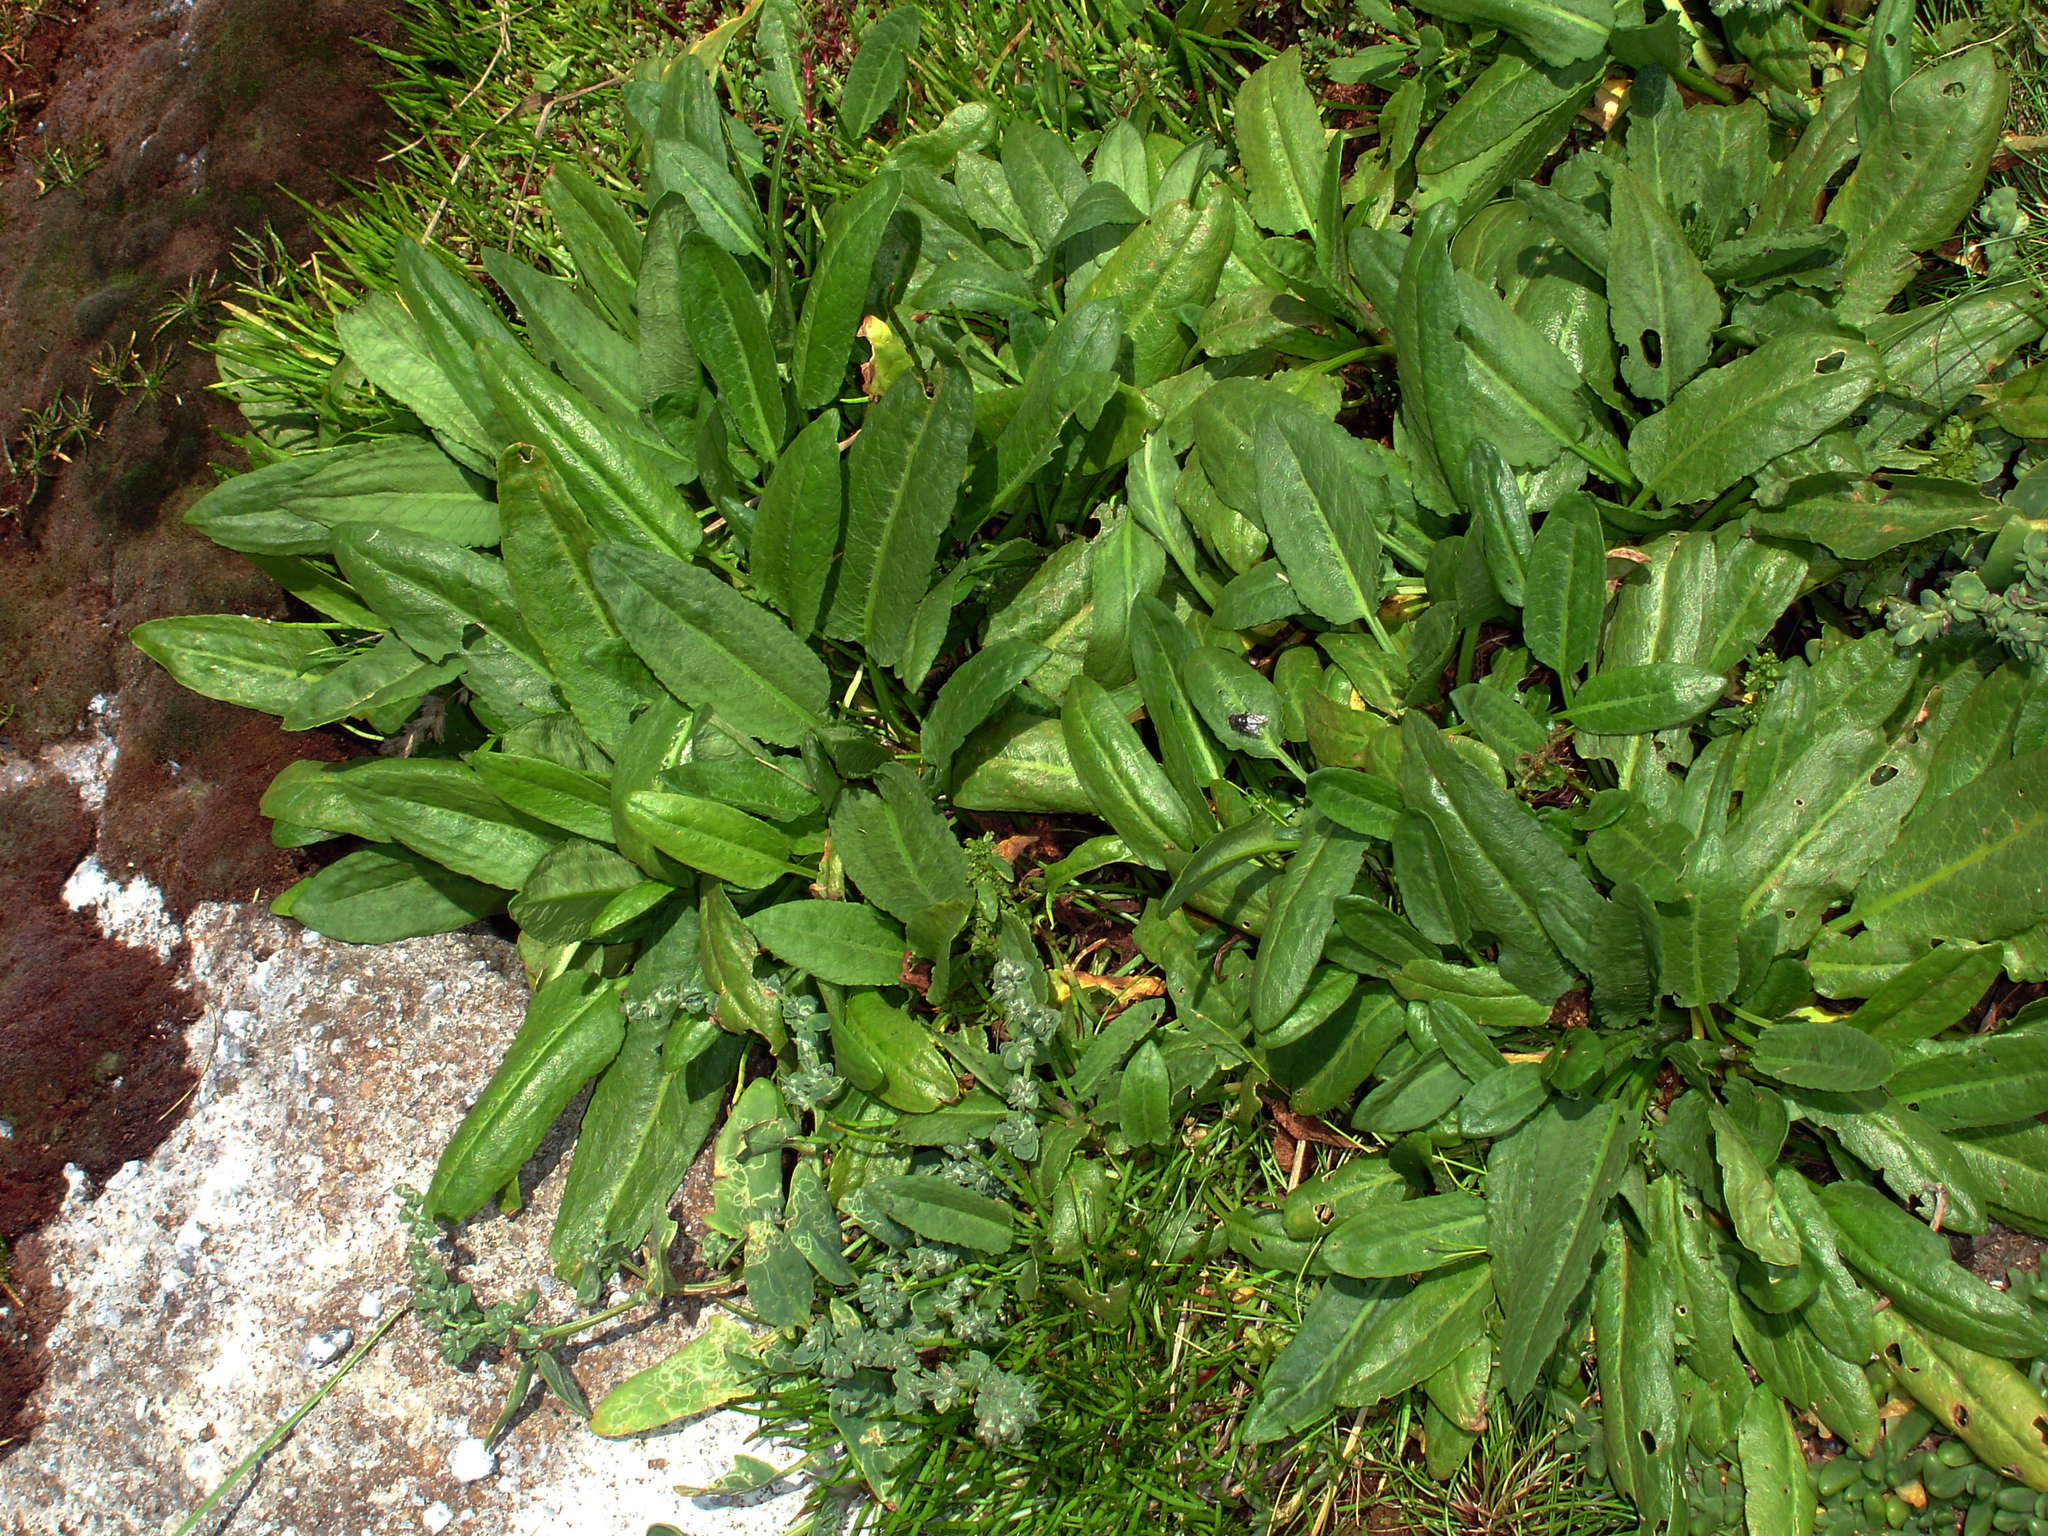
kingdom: Plantae
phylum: Tracheophyta
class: Magnoliopsida
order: Caryophyllales
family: Polygonaceae
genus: Rumex
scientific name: Rumex neglectus
